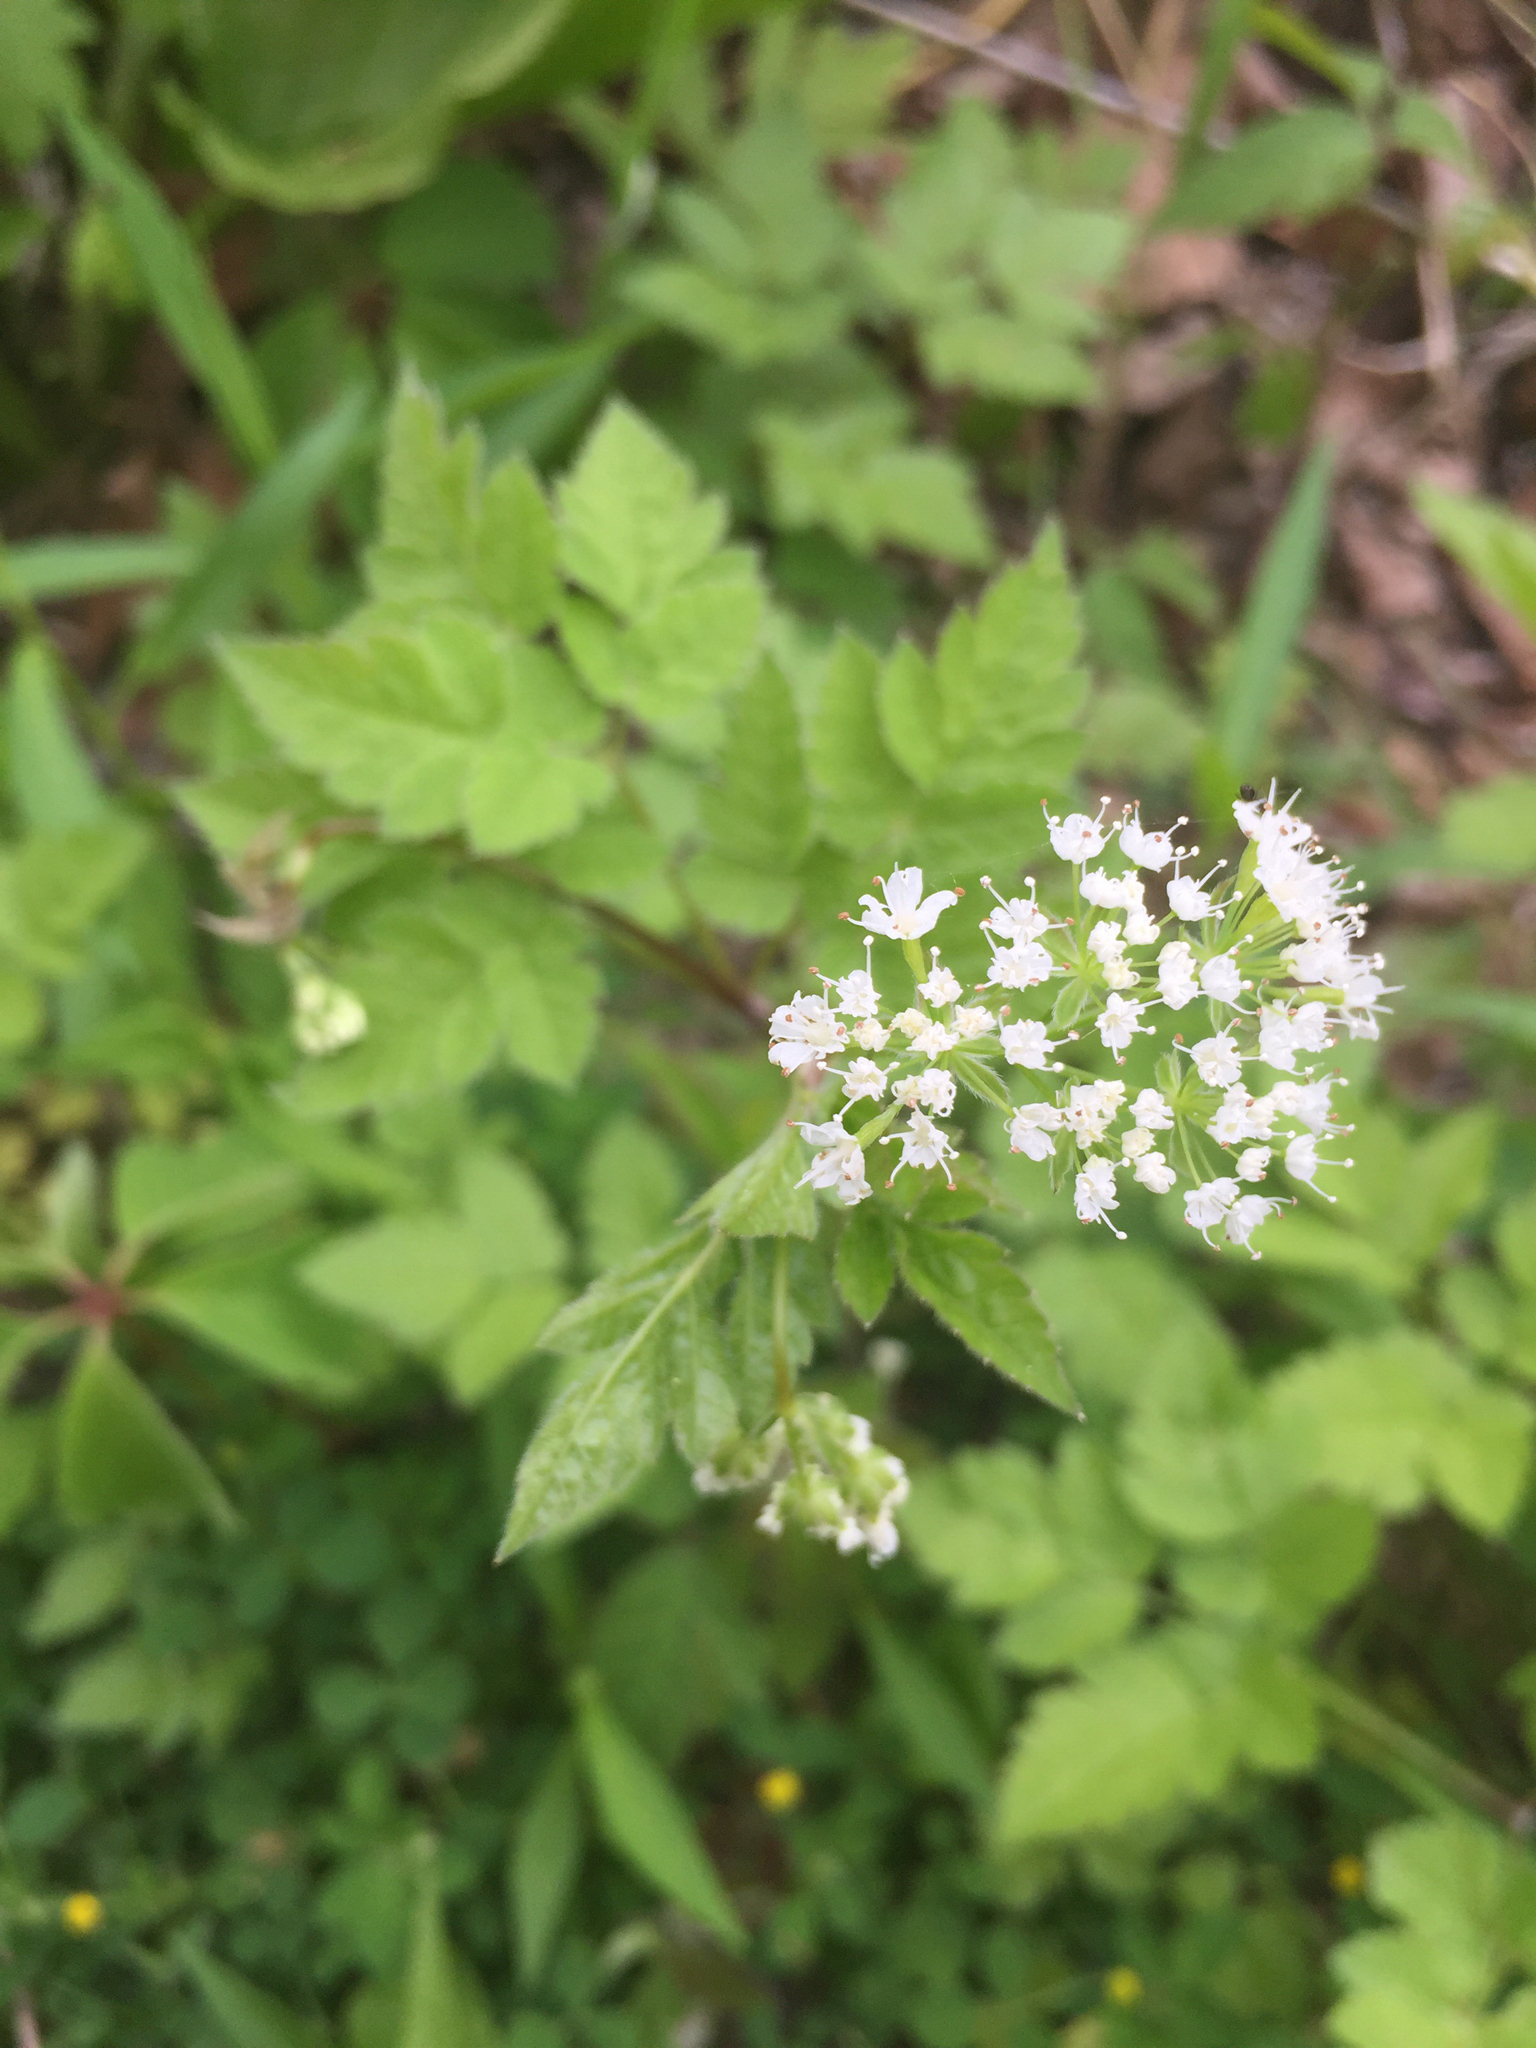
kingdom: Plantae
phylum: Tracheophyta
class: Magnoliopsida
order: Apiales
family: Apiaceae
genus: Osmorhiza
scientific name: Osmorhiza longistylis
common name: Smooth sweet cicely
